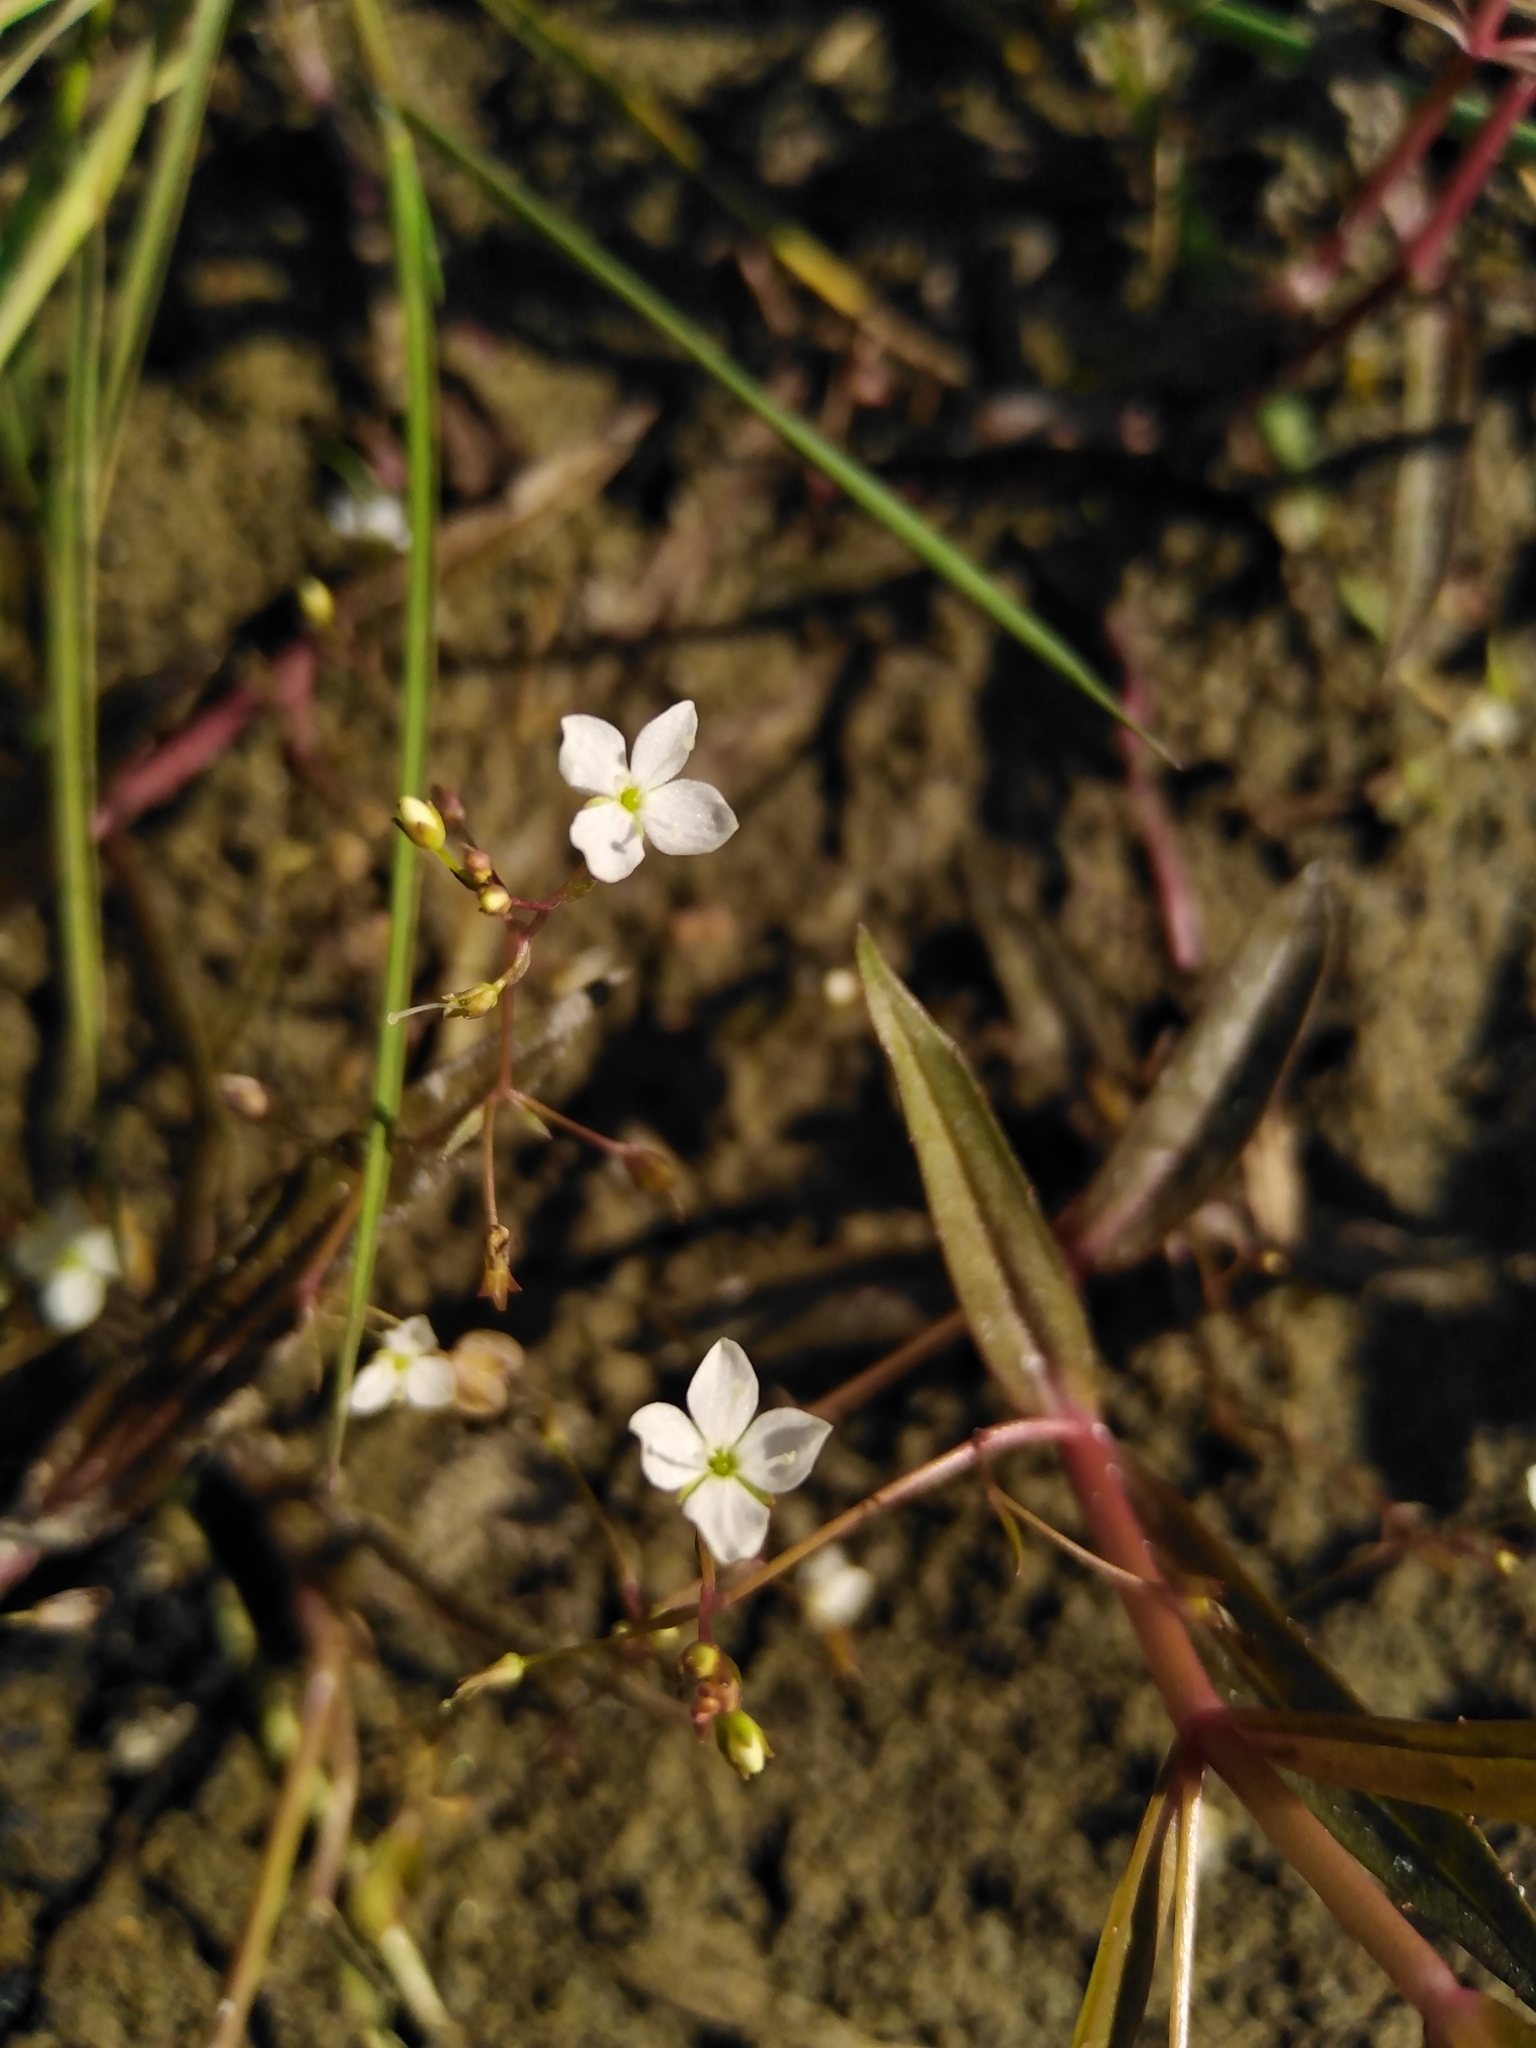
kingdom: Plantae
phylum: Tracheophyta
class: Magnoliopsida
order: Lamiales
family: Plantaginaceae
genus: Veronica
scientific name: Veronica scutellata
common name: Marsh speedwell
